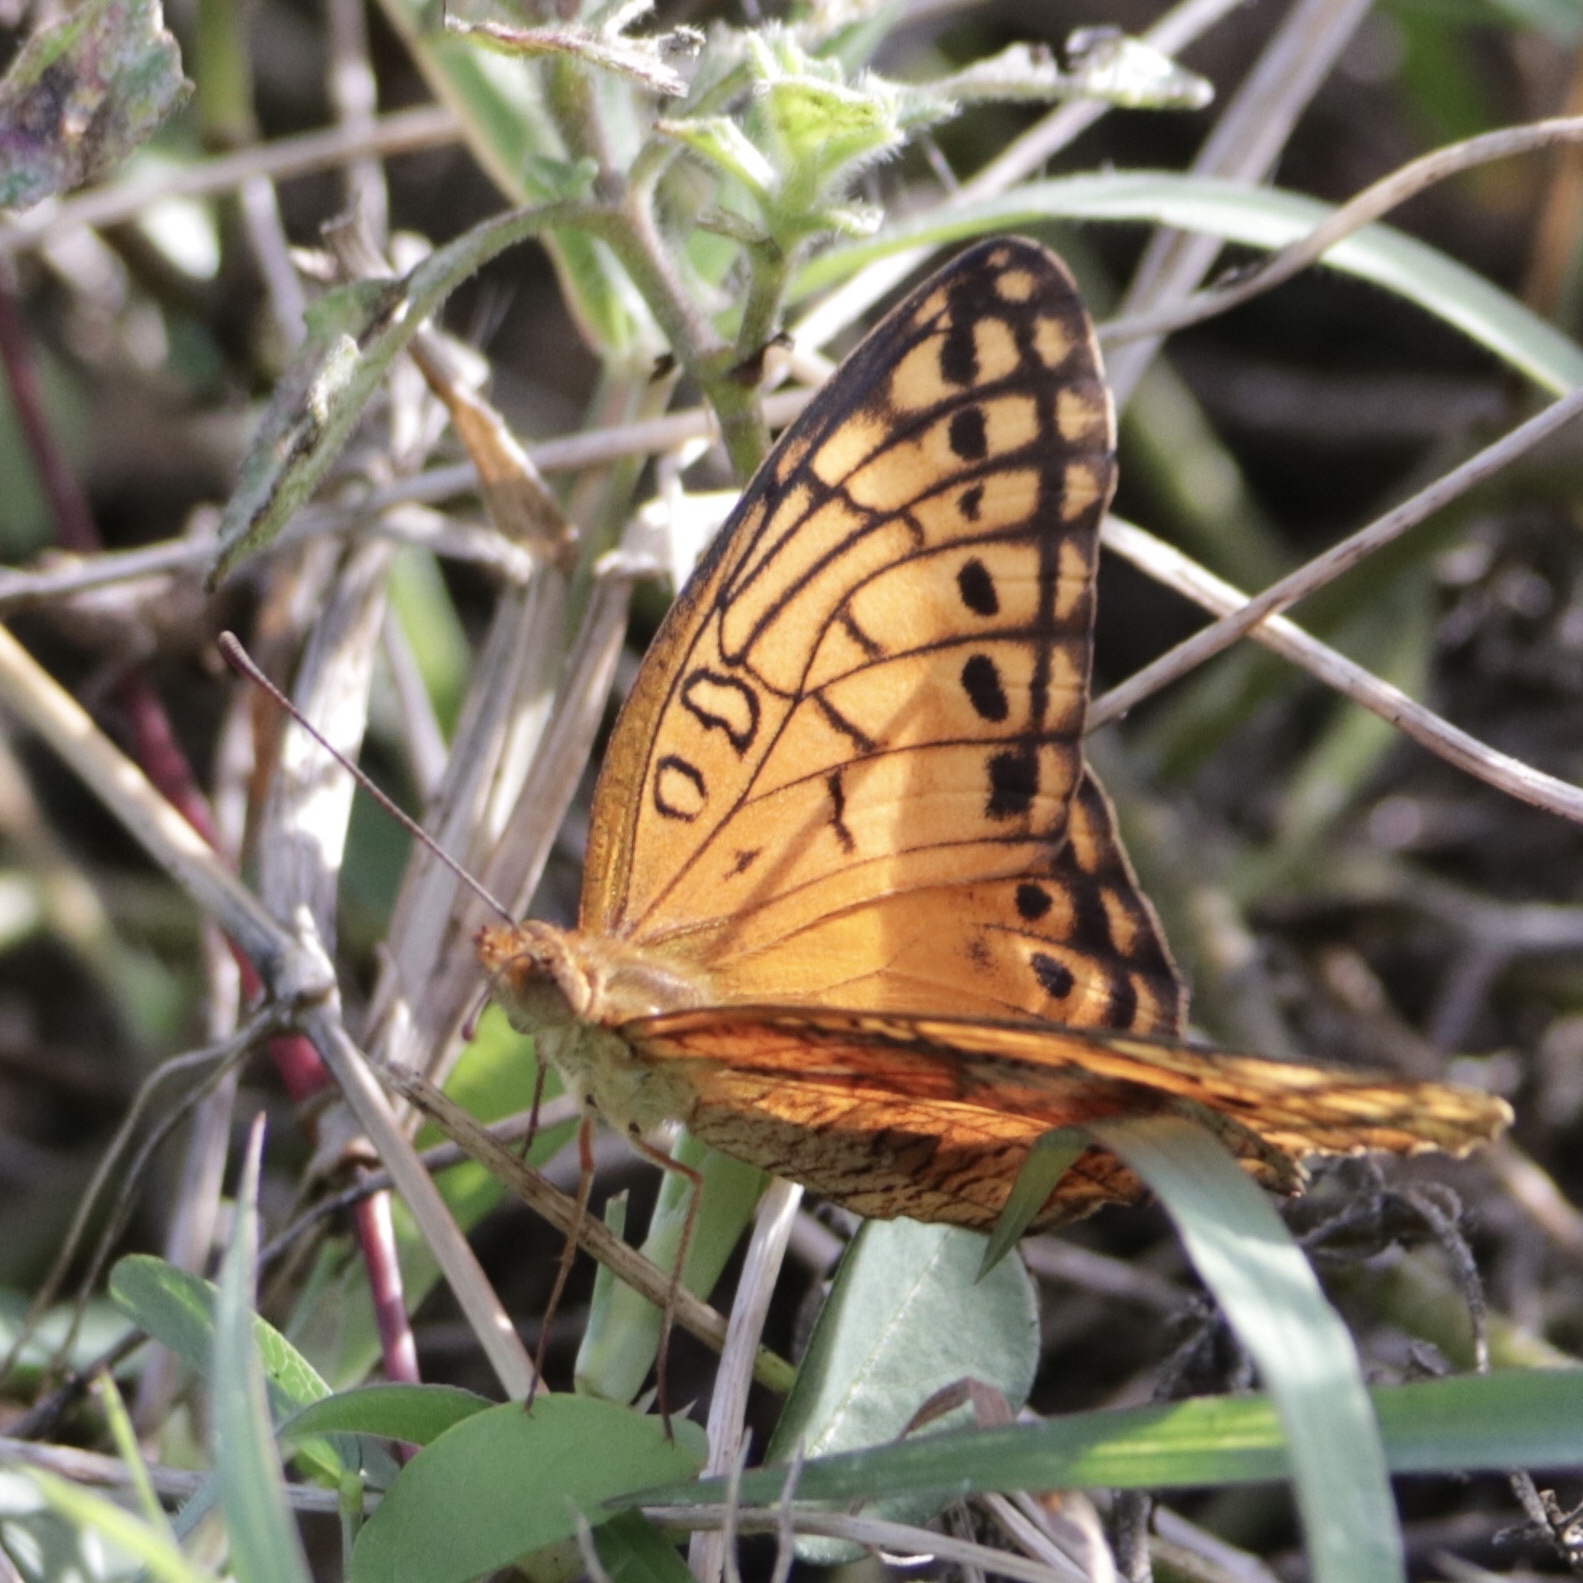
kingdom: Animalia
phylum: Arthropoda
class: Insecta
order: Lepidoptera
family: Nymphalidae
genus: Euptoieta
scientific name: Euptoieta hegesia
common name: Mexican fritillary
